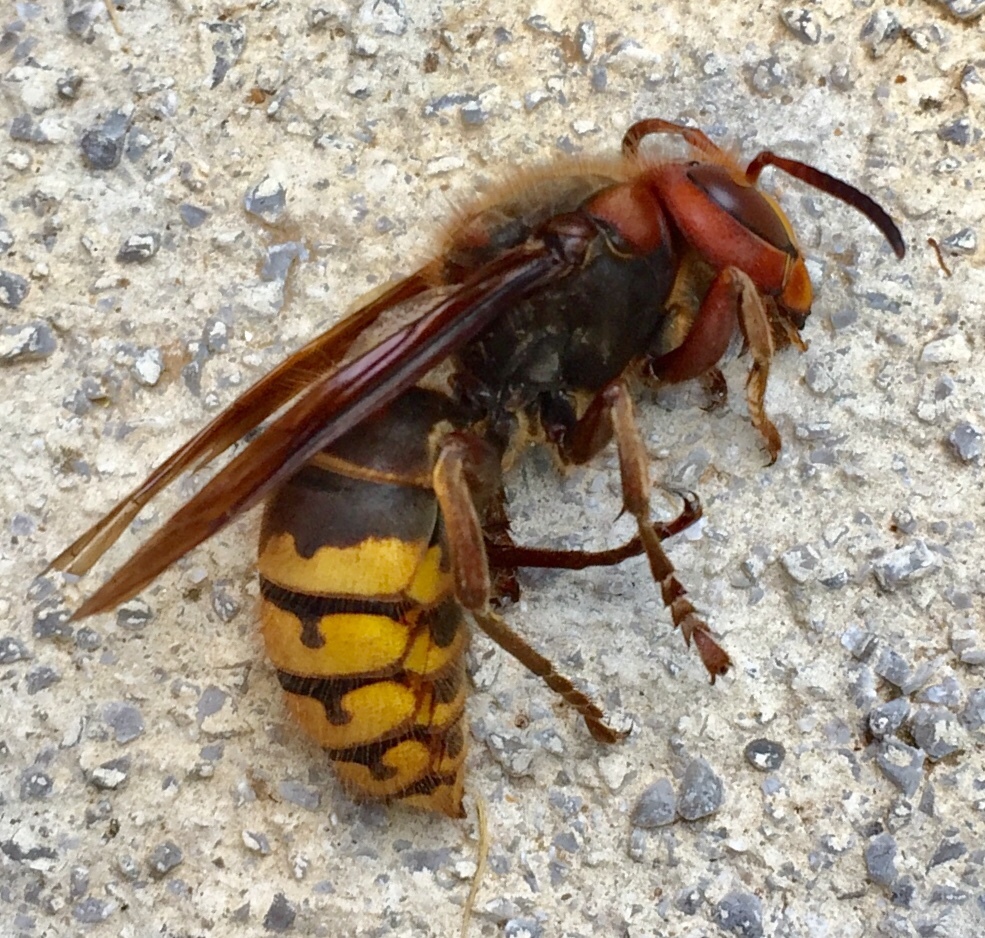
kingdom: Animalia
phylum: Arthropoda
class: Insecta
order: Hymenoptera
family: Vespidae
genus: Vespa
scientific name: Vespa crabro
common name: Hornet
